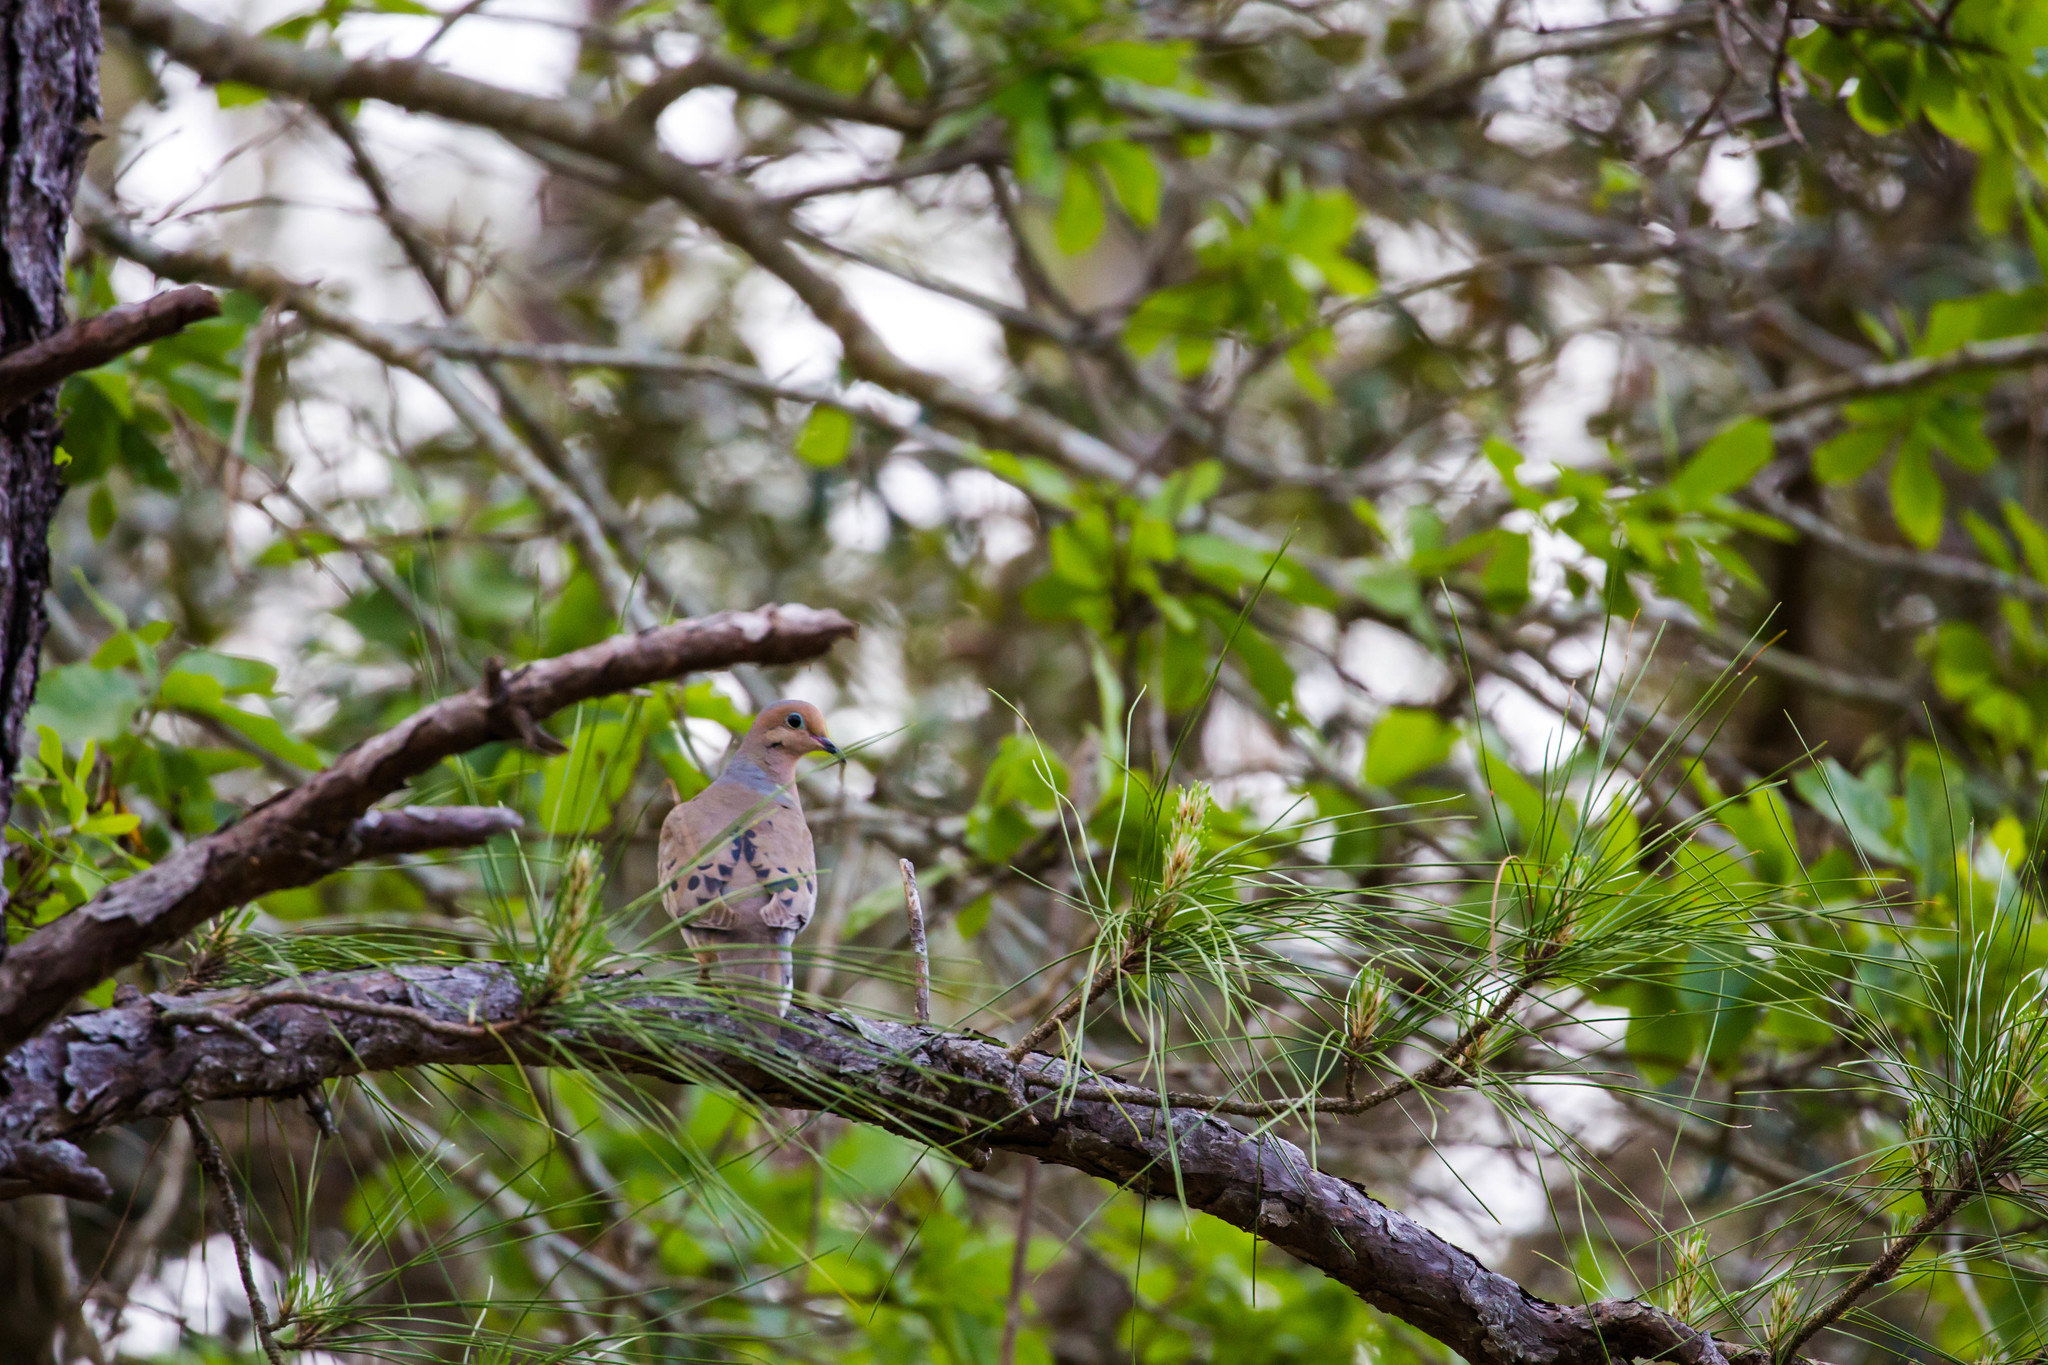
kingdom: Animalia
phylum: Chordata
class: Aves
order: Columbiformes
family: Columbidae
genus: Zenaida
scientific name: Zenaida macroura
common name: Mourning dove
